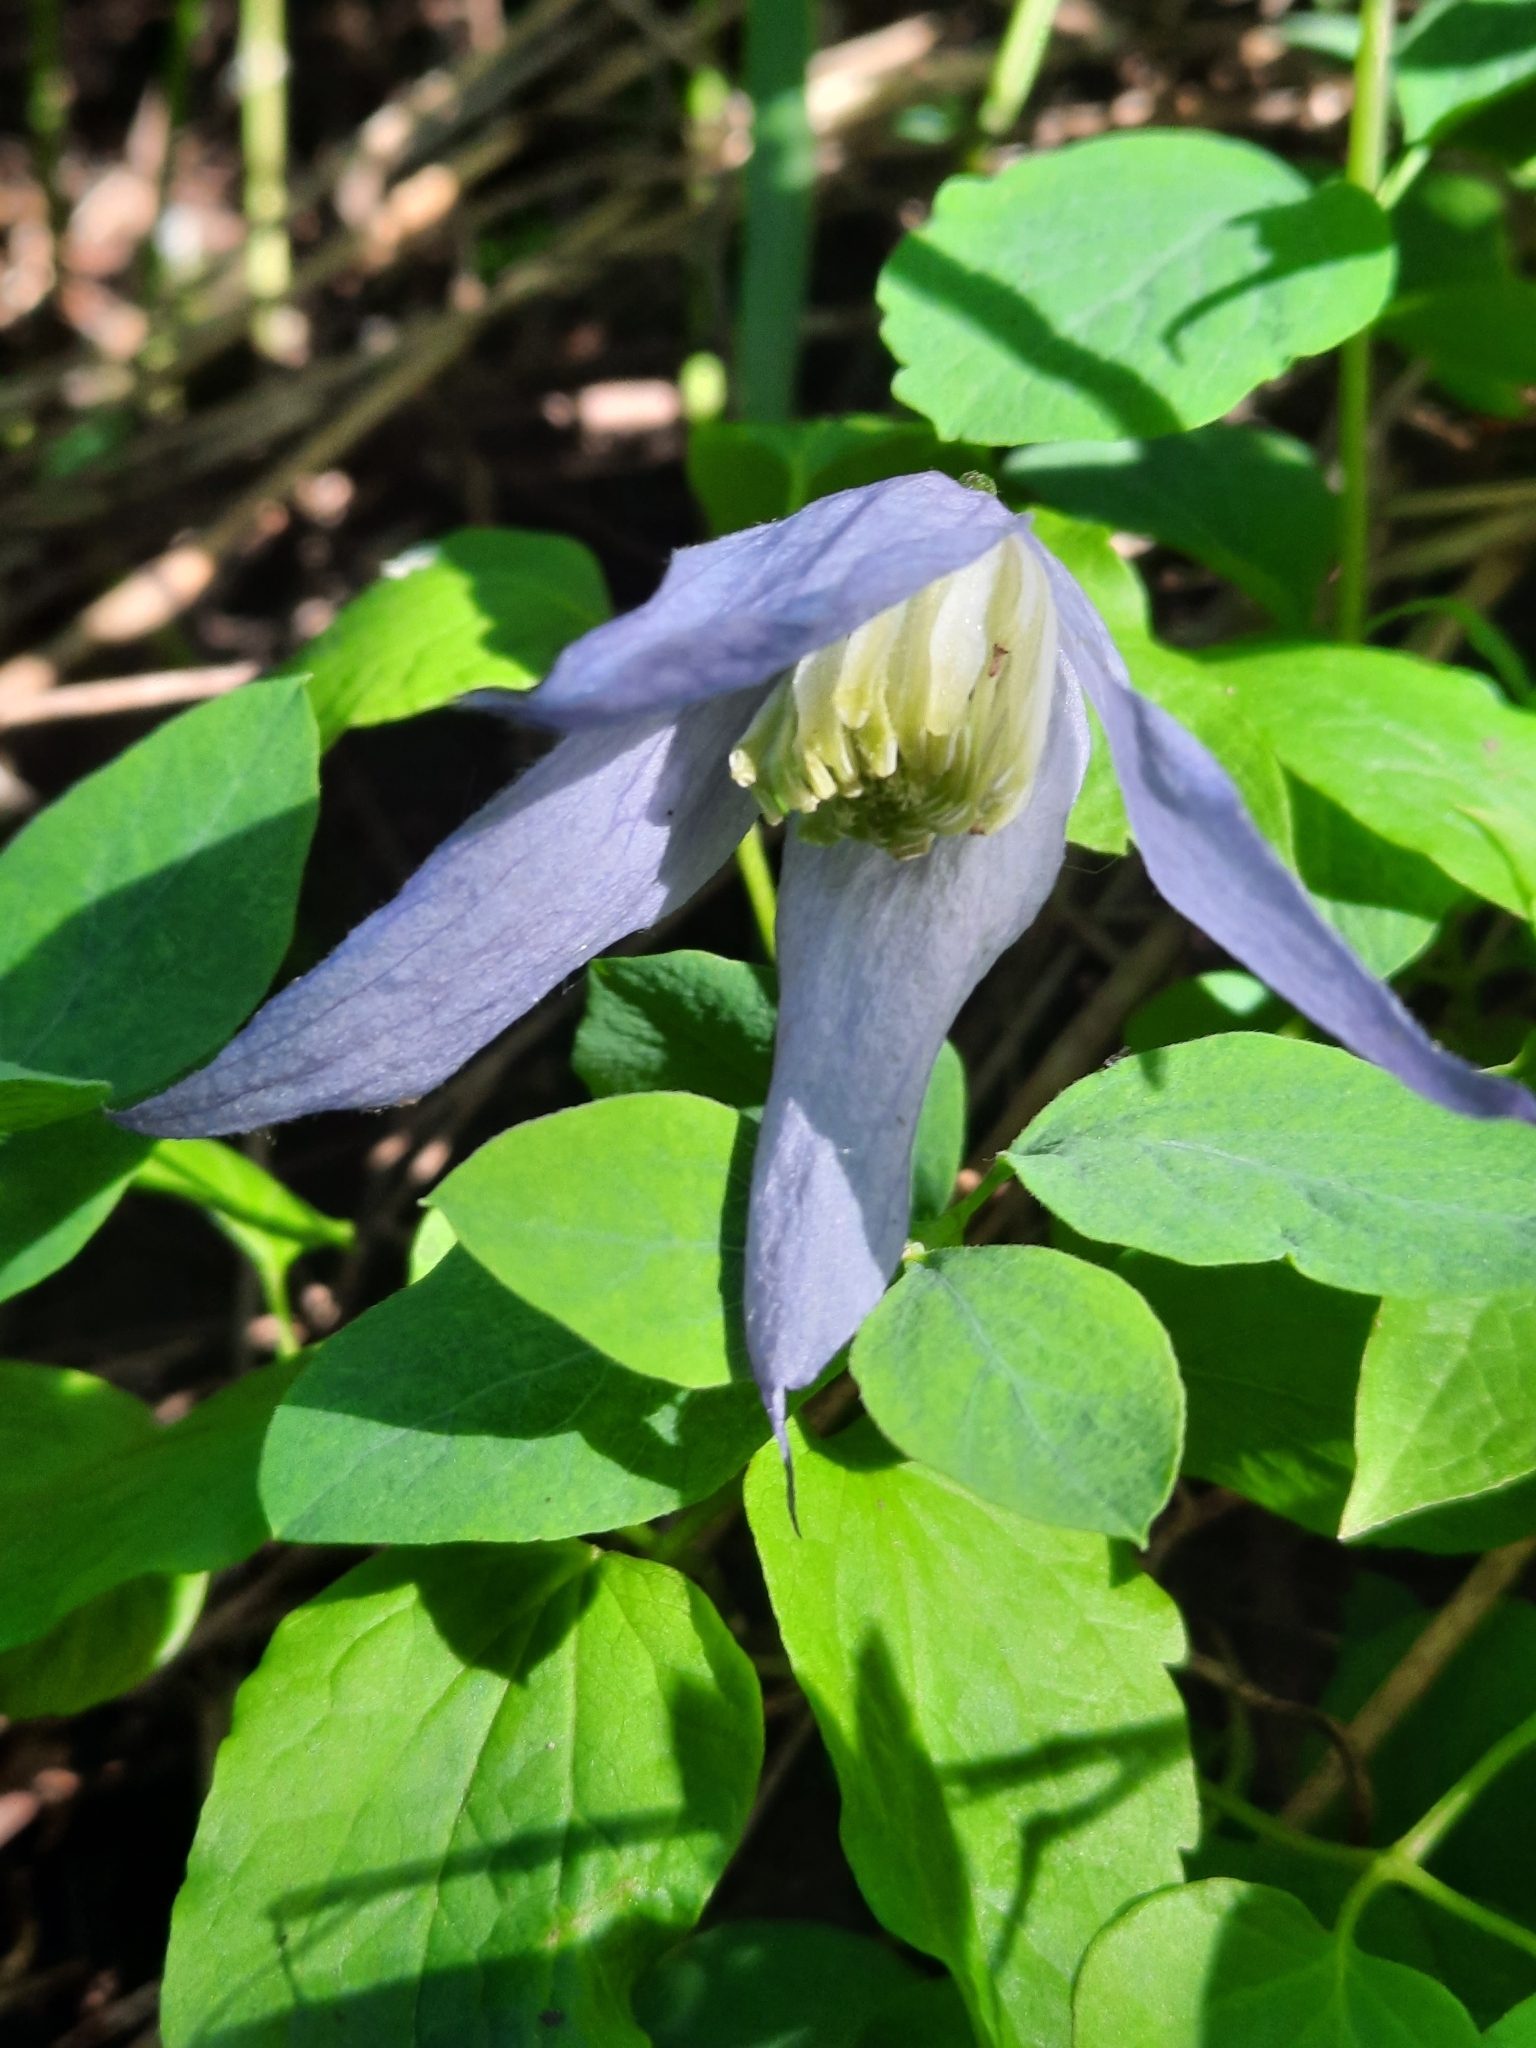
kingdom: Plantae
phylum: Tracheophyta
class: Magnoliopsida
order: Ranunculales
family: Ranunculaceae
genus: Clematis
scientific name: Clematis occidentalis
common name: Purple clematis
